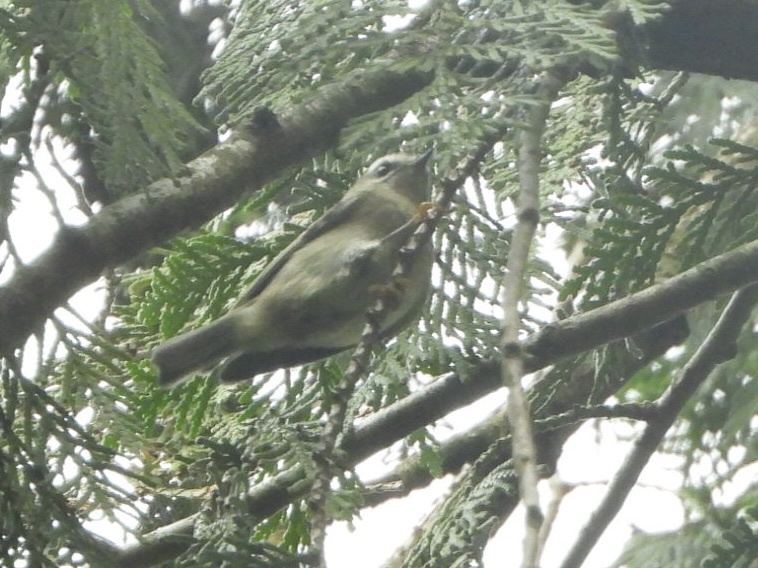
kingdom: Animalia
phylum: Chordata
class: Aves
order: Passeriformes
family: Regulidae
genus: Regulus
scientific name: Regulus satrapa
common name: Golden-crowned kinglet
